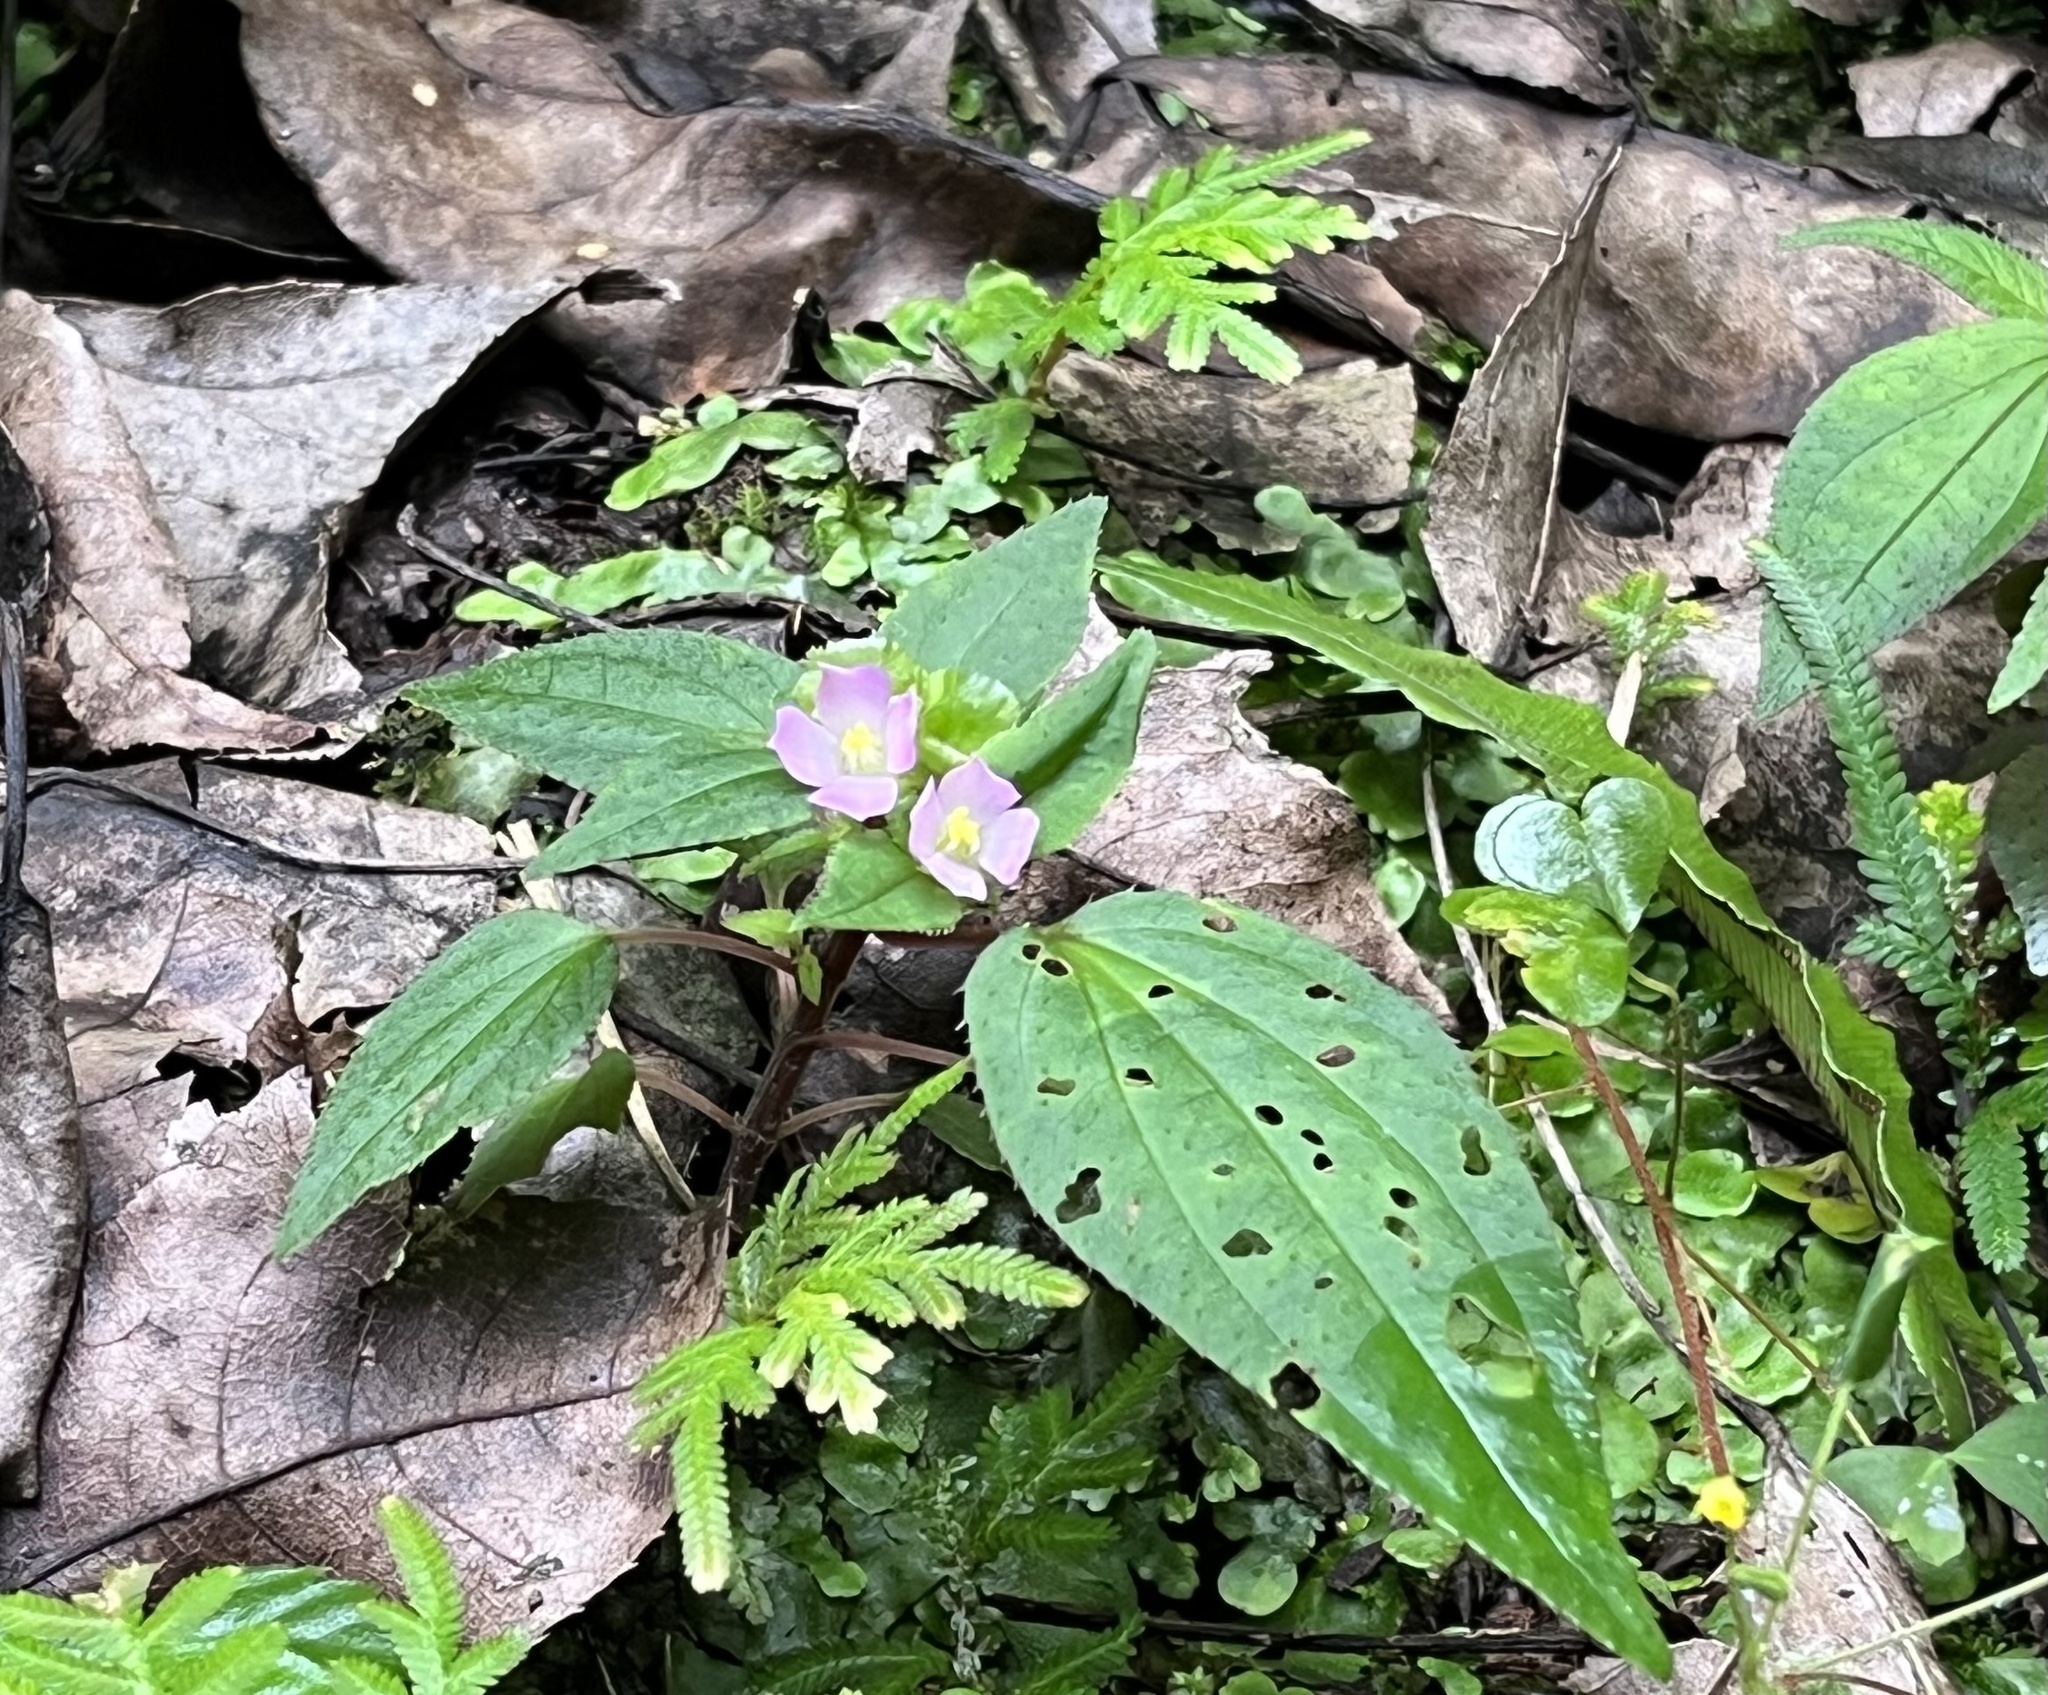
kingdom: Plantae
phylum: Tracheophyta
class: Magnoliopsida
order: Myrtales
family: Melastomataceae
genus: Sarcopyramis
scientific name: Sarcopyramis napalensis
